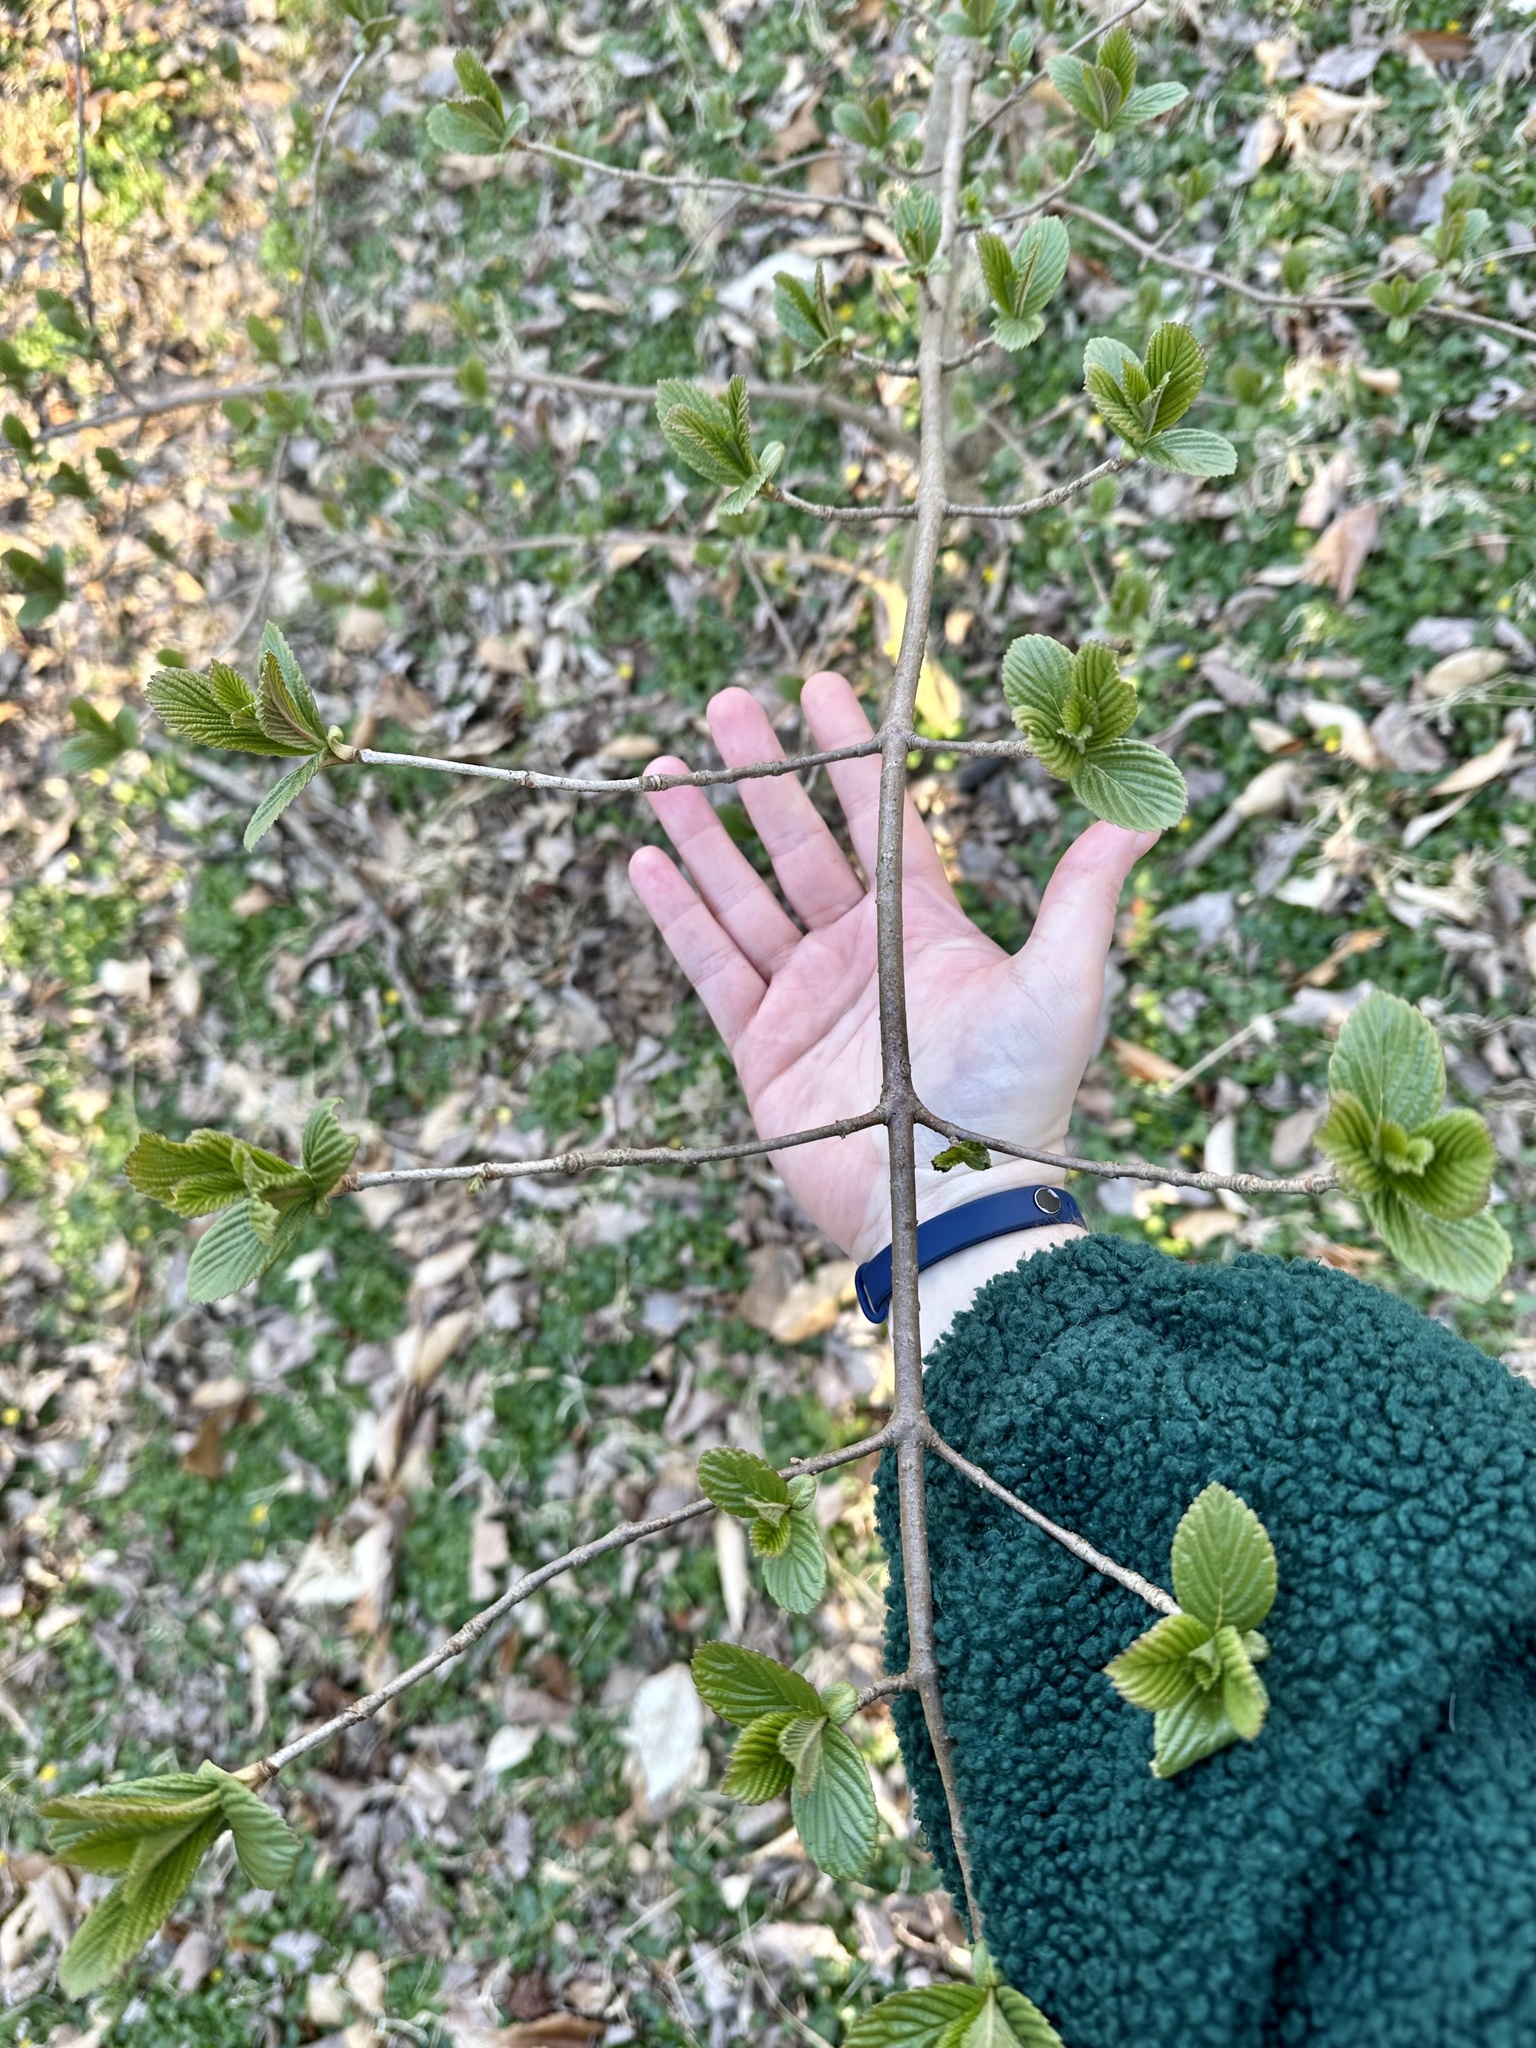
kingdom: Plantae
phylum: Tracheophyta
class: Magnoliopsida
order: Dipsacales
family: Viburnaceae
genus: Viburnum
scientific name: Viburnum sieboldii
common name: Siebold's arrowwood
